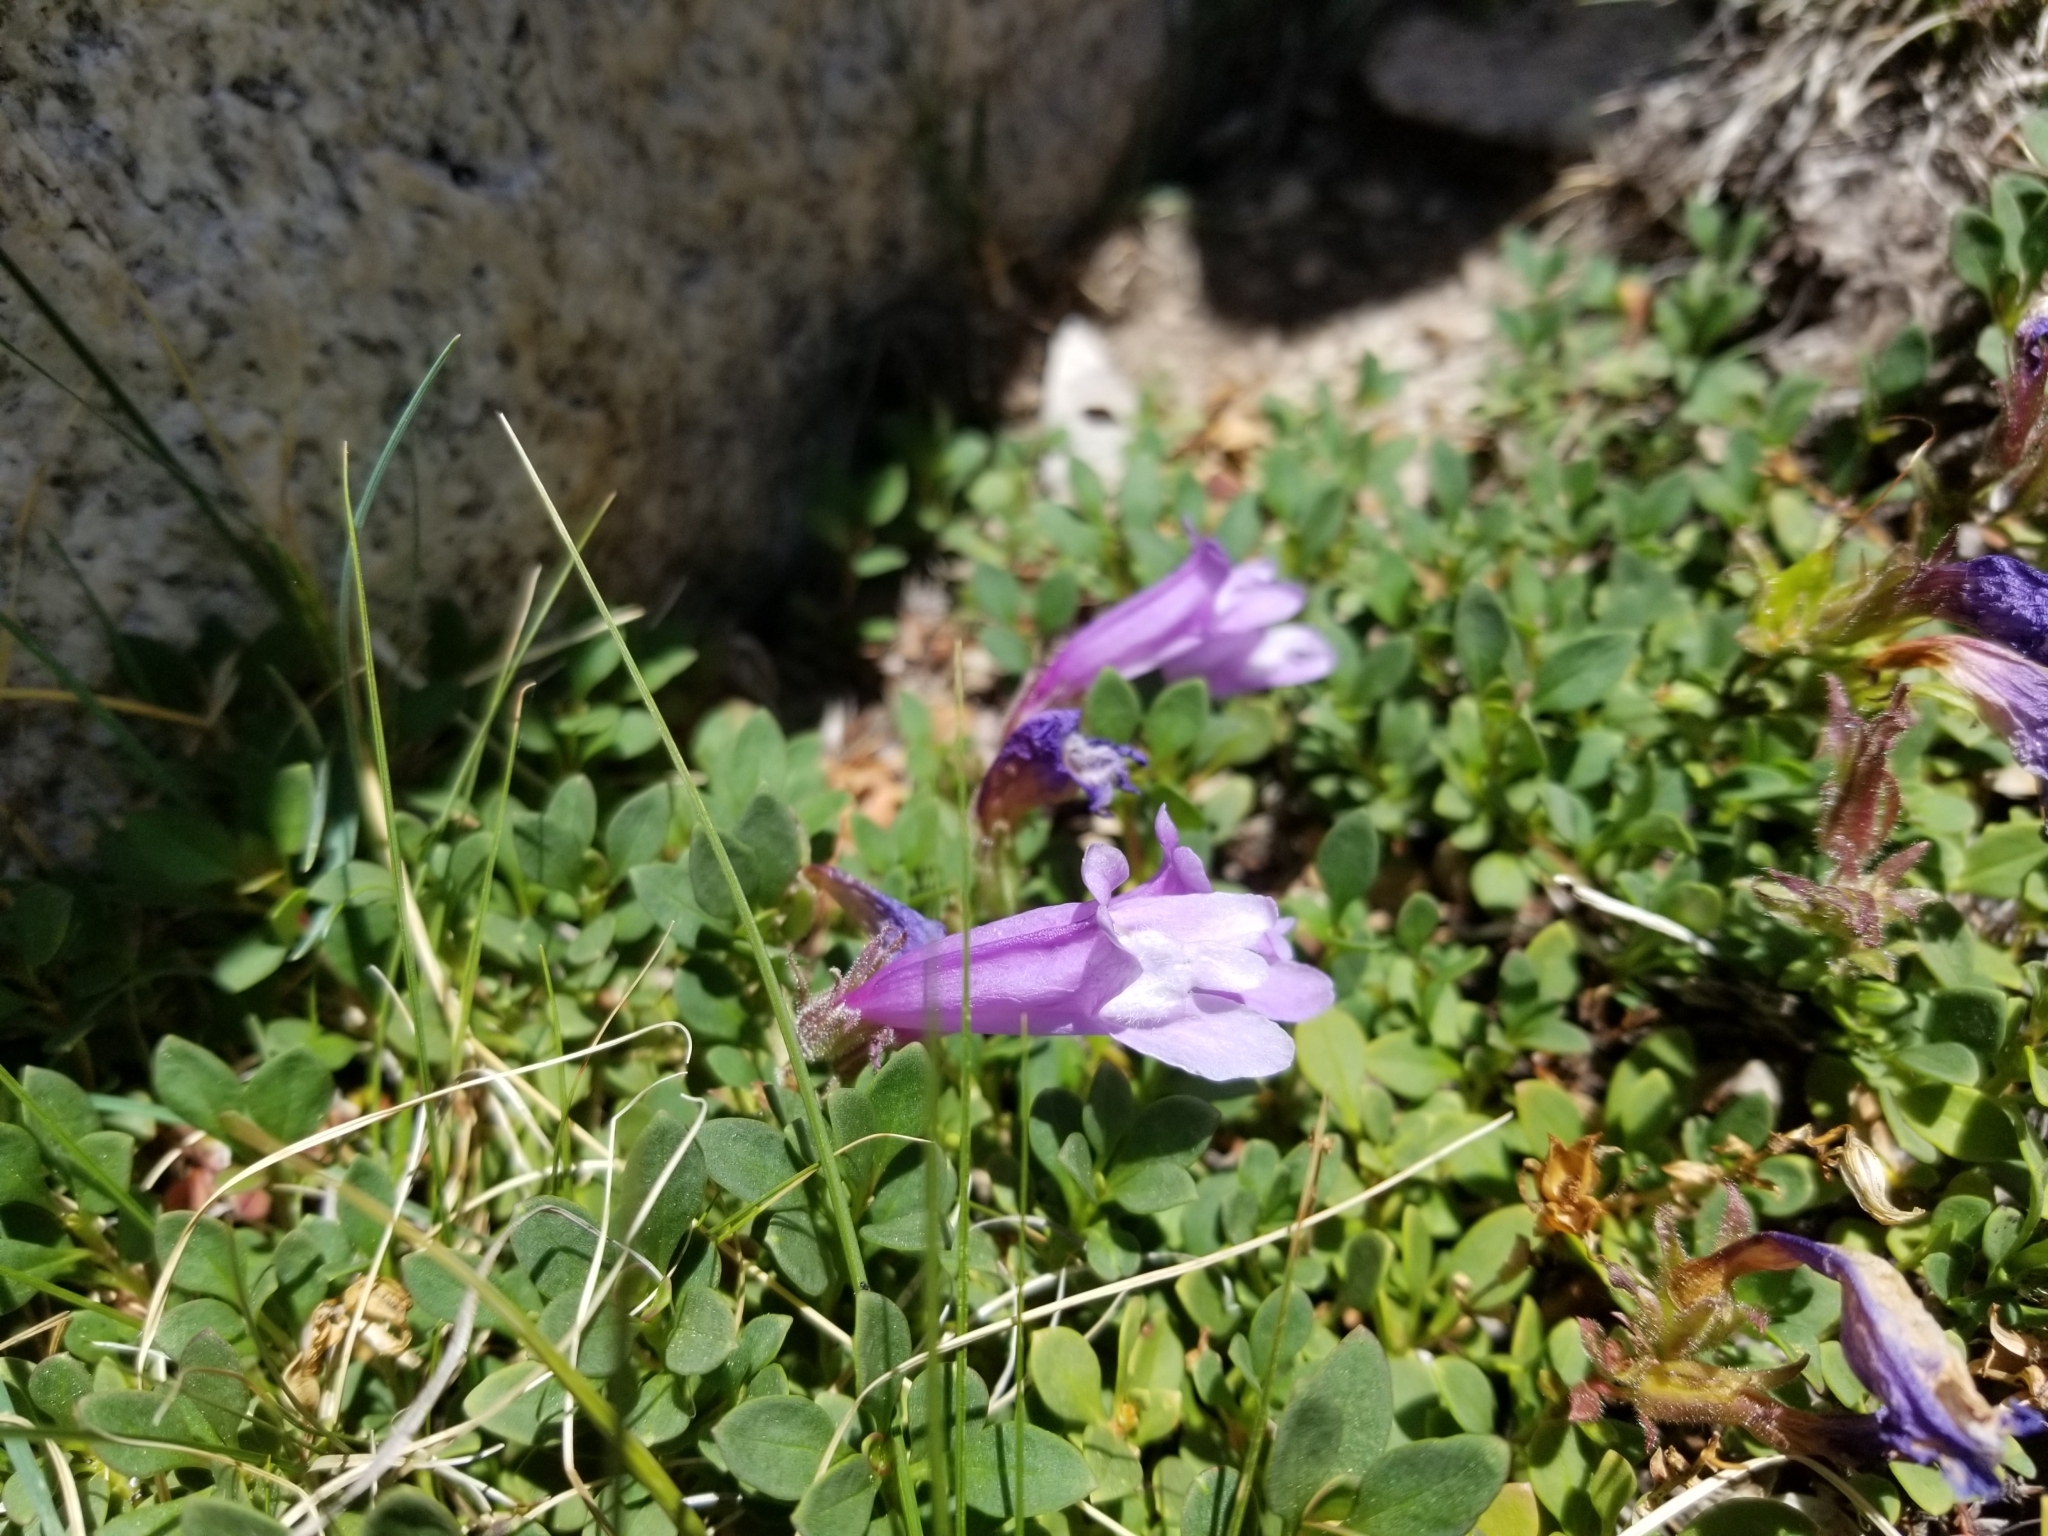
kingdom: Plantae
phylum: Tracheophyta
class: Magnoliopsida
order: Lamiales
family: Plantaginaceae
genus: Penstemon
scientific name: Penstemon davidsonii
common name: Davidson's penstemon
